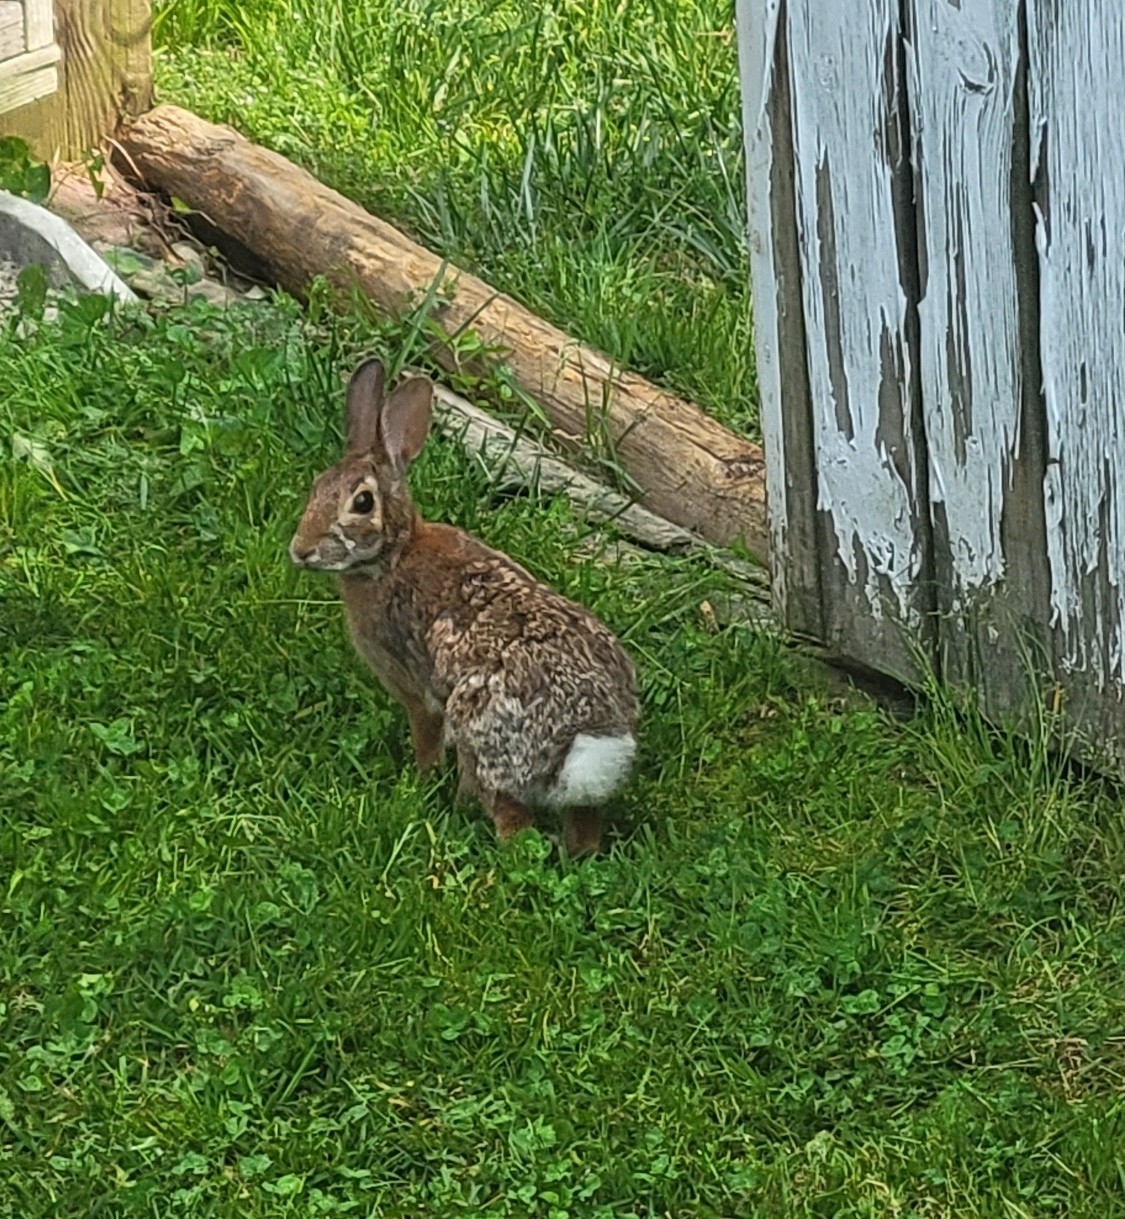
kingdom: Animalia
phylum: Chordata
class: Mammalia
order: Lagomorpha
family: Leporidae
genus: Sylvilagus
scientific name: Sylvilagus floridanus
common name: Eastern cottontail
